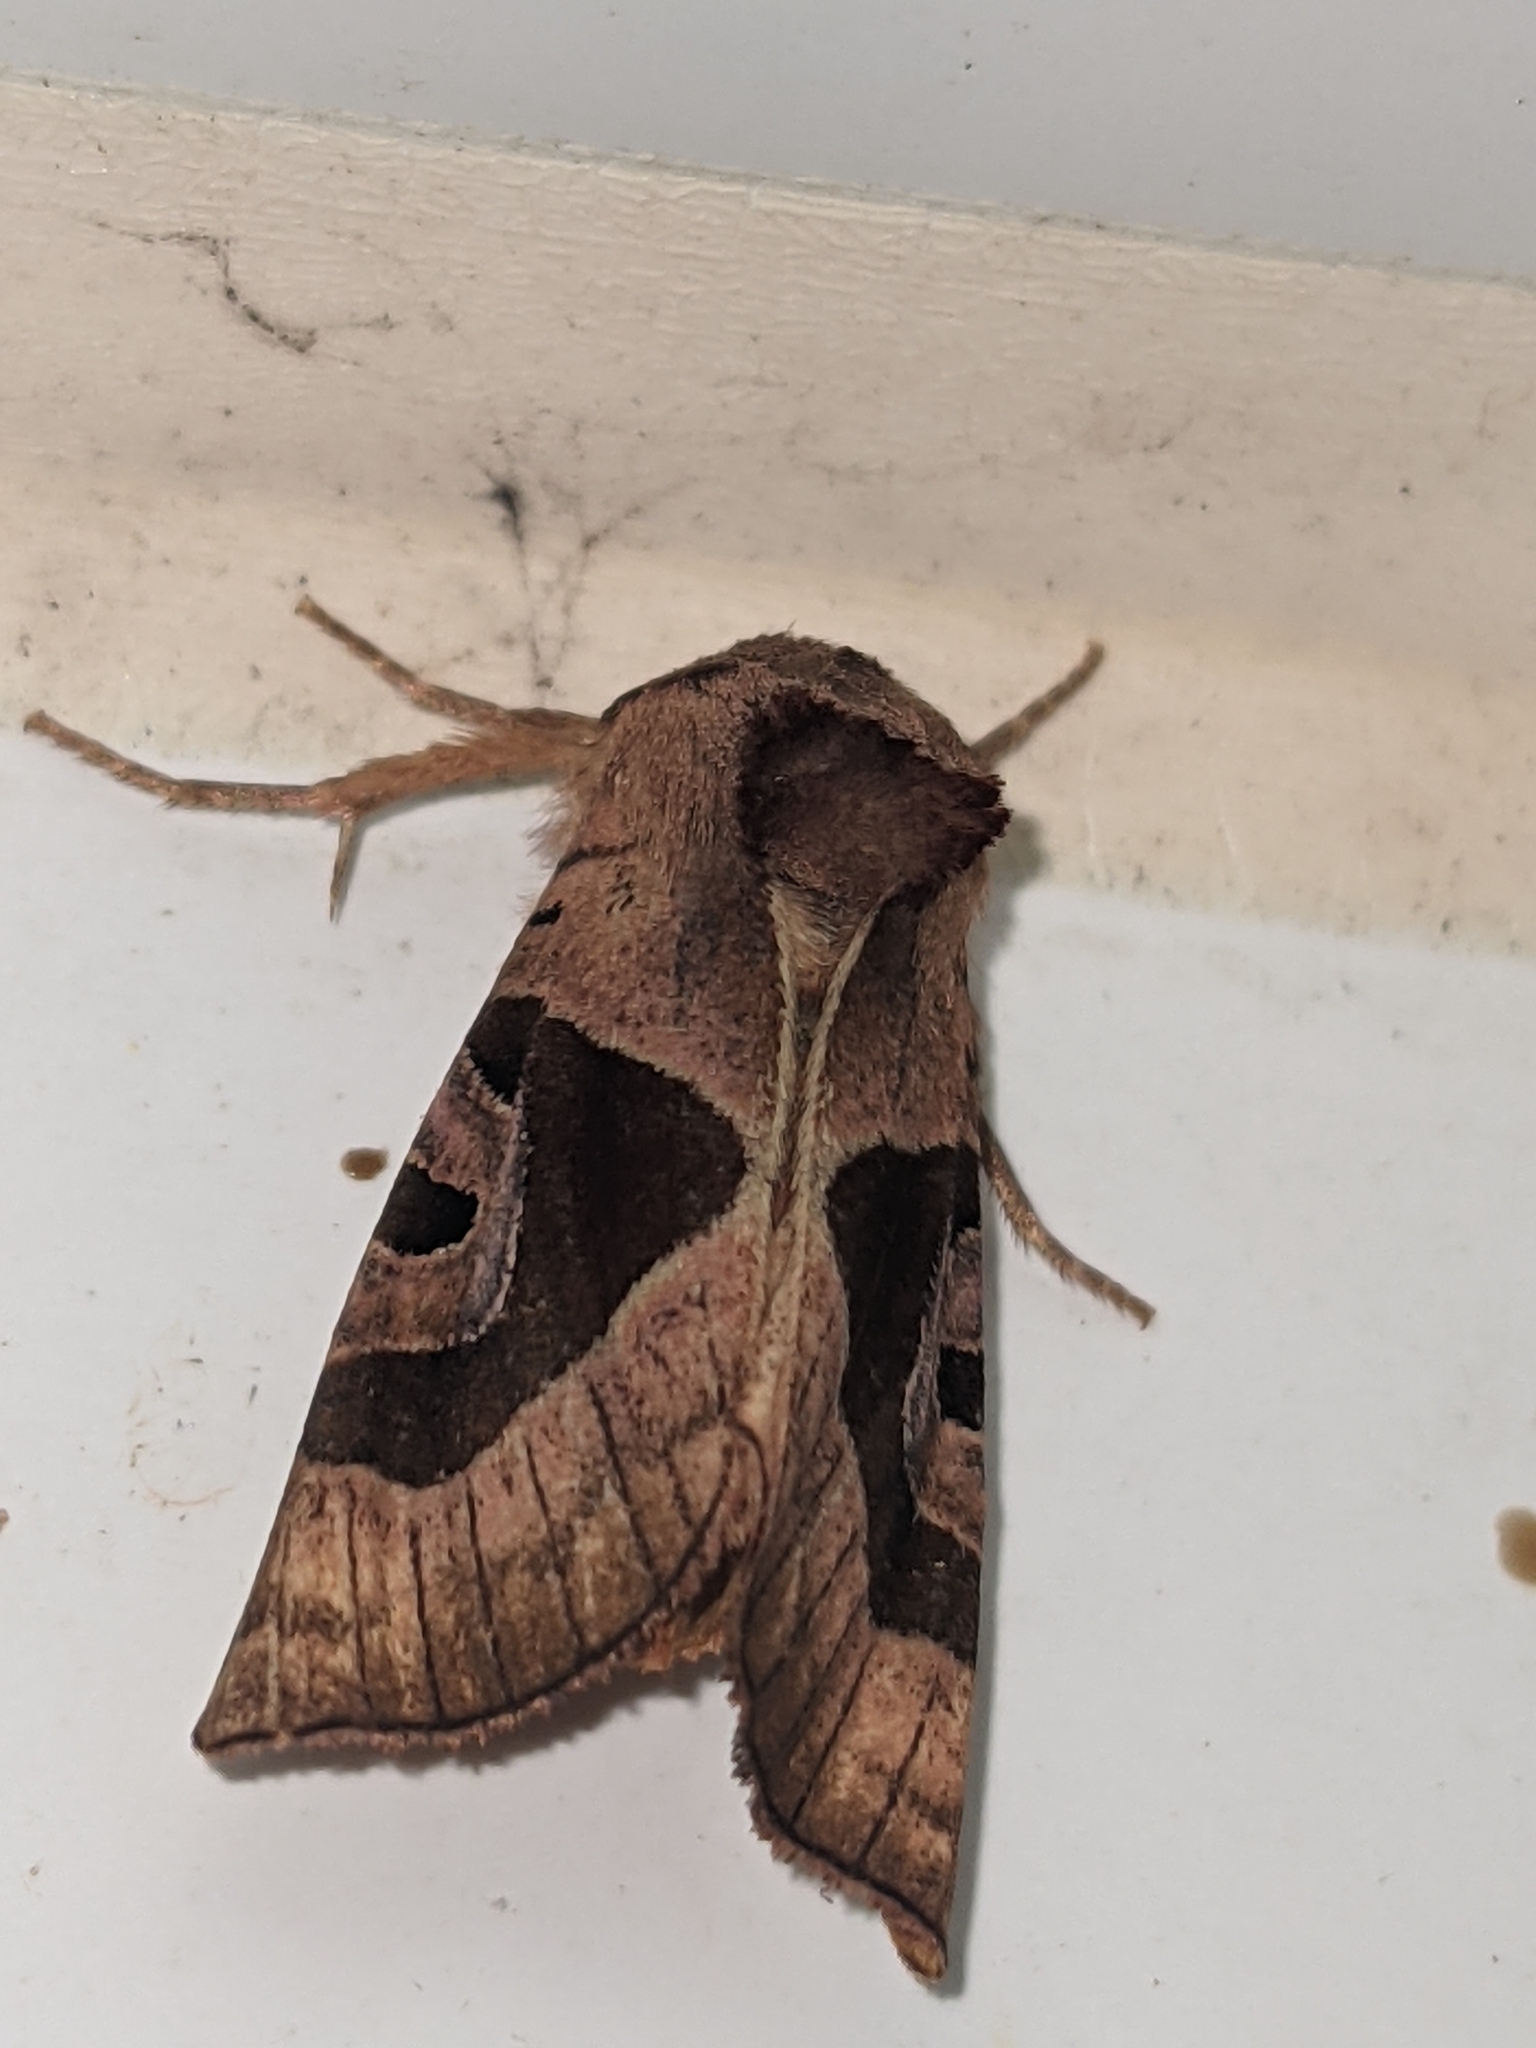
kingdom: Animalia
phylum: Arthropoda
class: Insecta
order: Lepidoptera
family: Noctuidae
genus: Conservula
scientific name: Conservula anodonta
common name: Sharp angle shades
